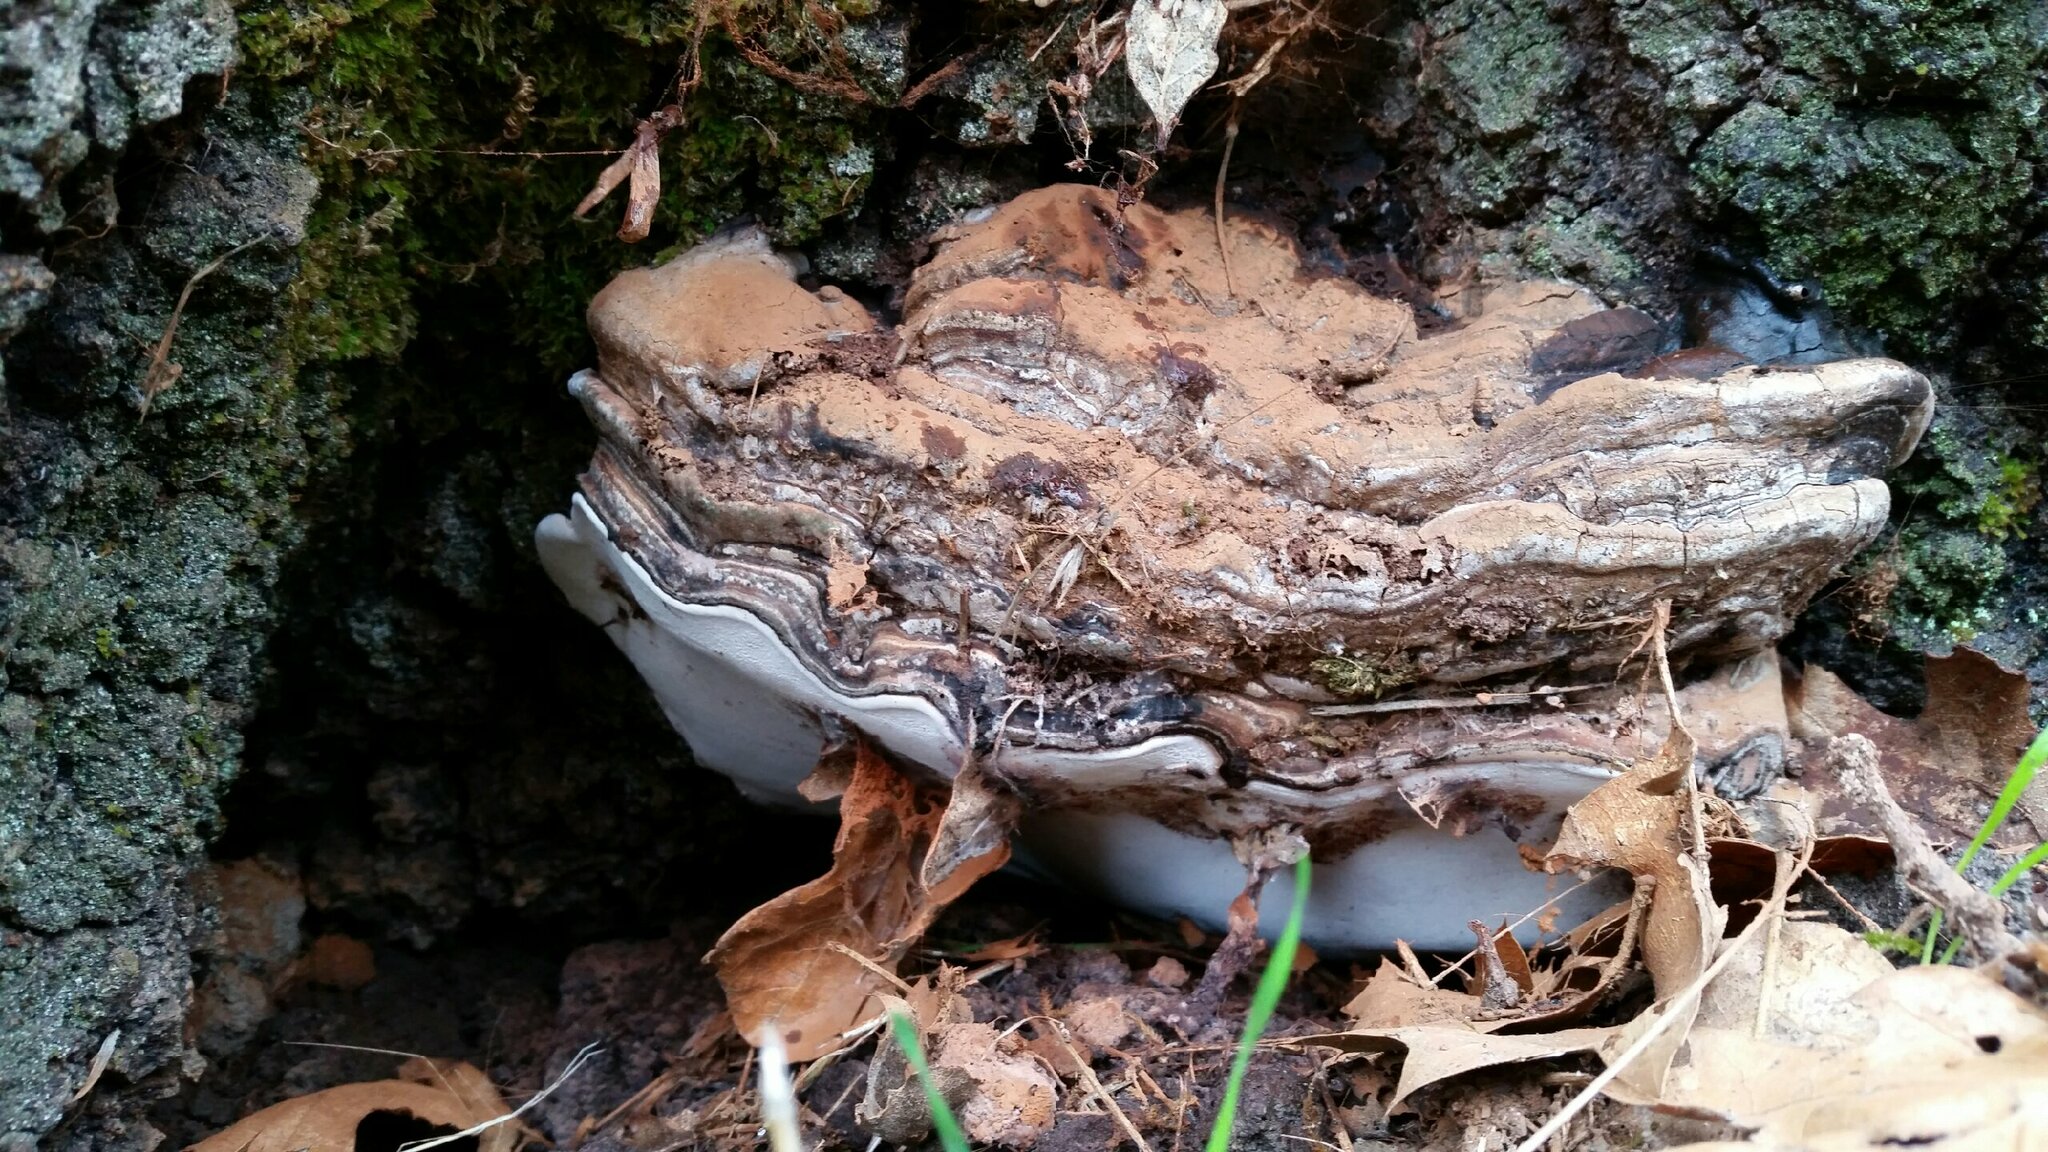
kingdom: Fungi
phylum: Basidiomycota
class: Agaricomycetes
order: Polyporales
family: Polyporaceae
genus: Ganoderma
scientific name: Ganoderma brownii
